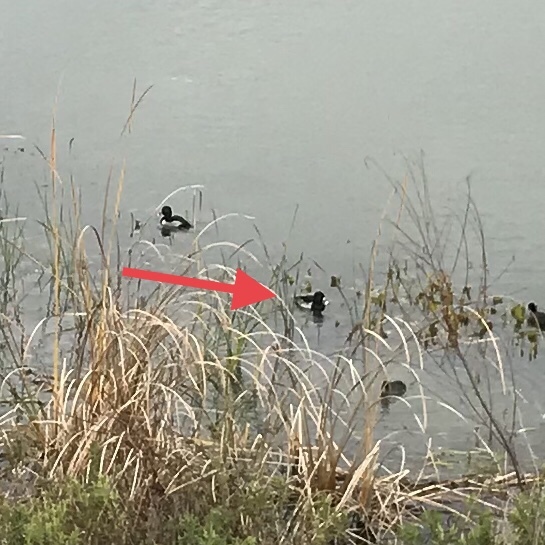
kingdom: Animalia
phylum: Chordata
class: Aves
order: Anseriformes
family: Anatidae
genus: Aythya
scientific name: Aythya collaris
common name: Ring-necked duck
